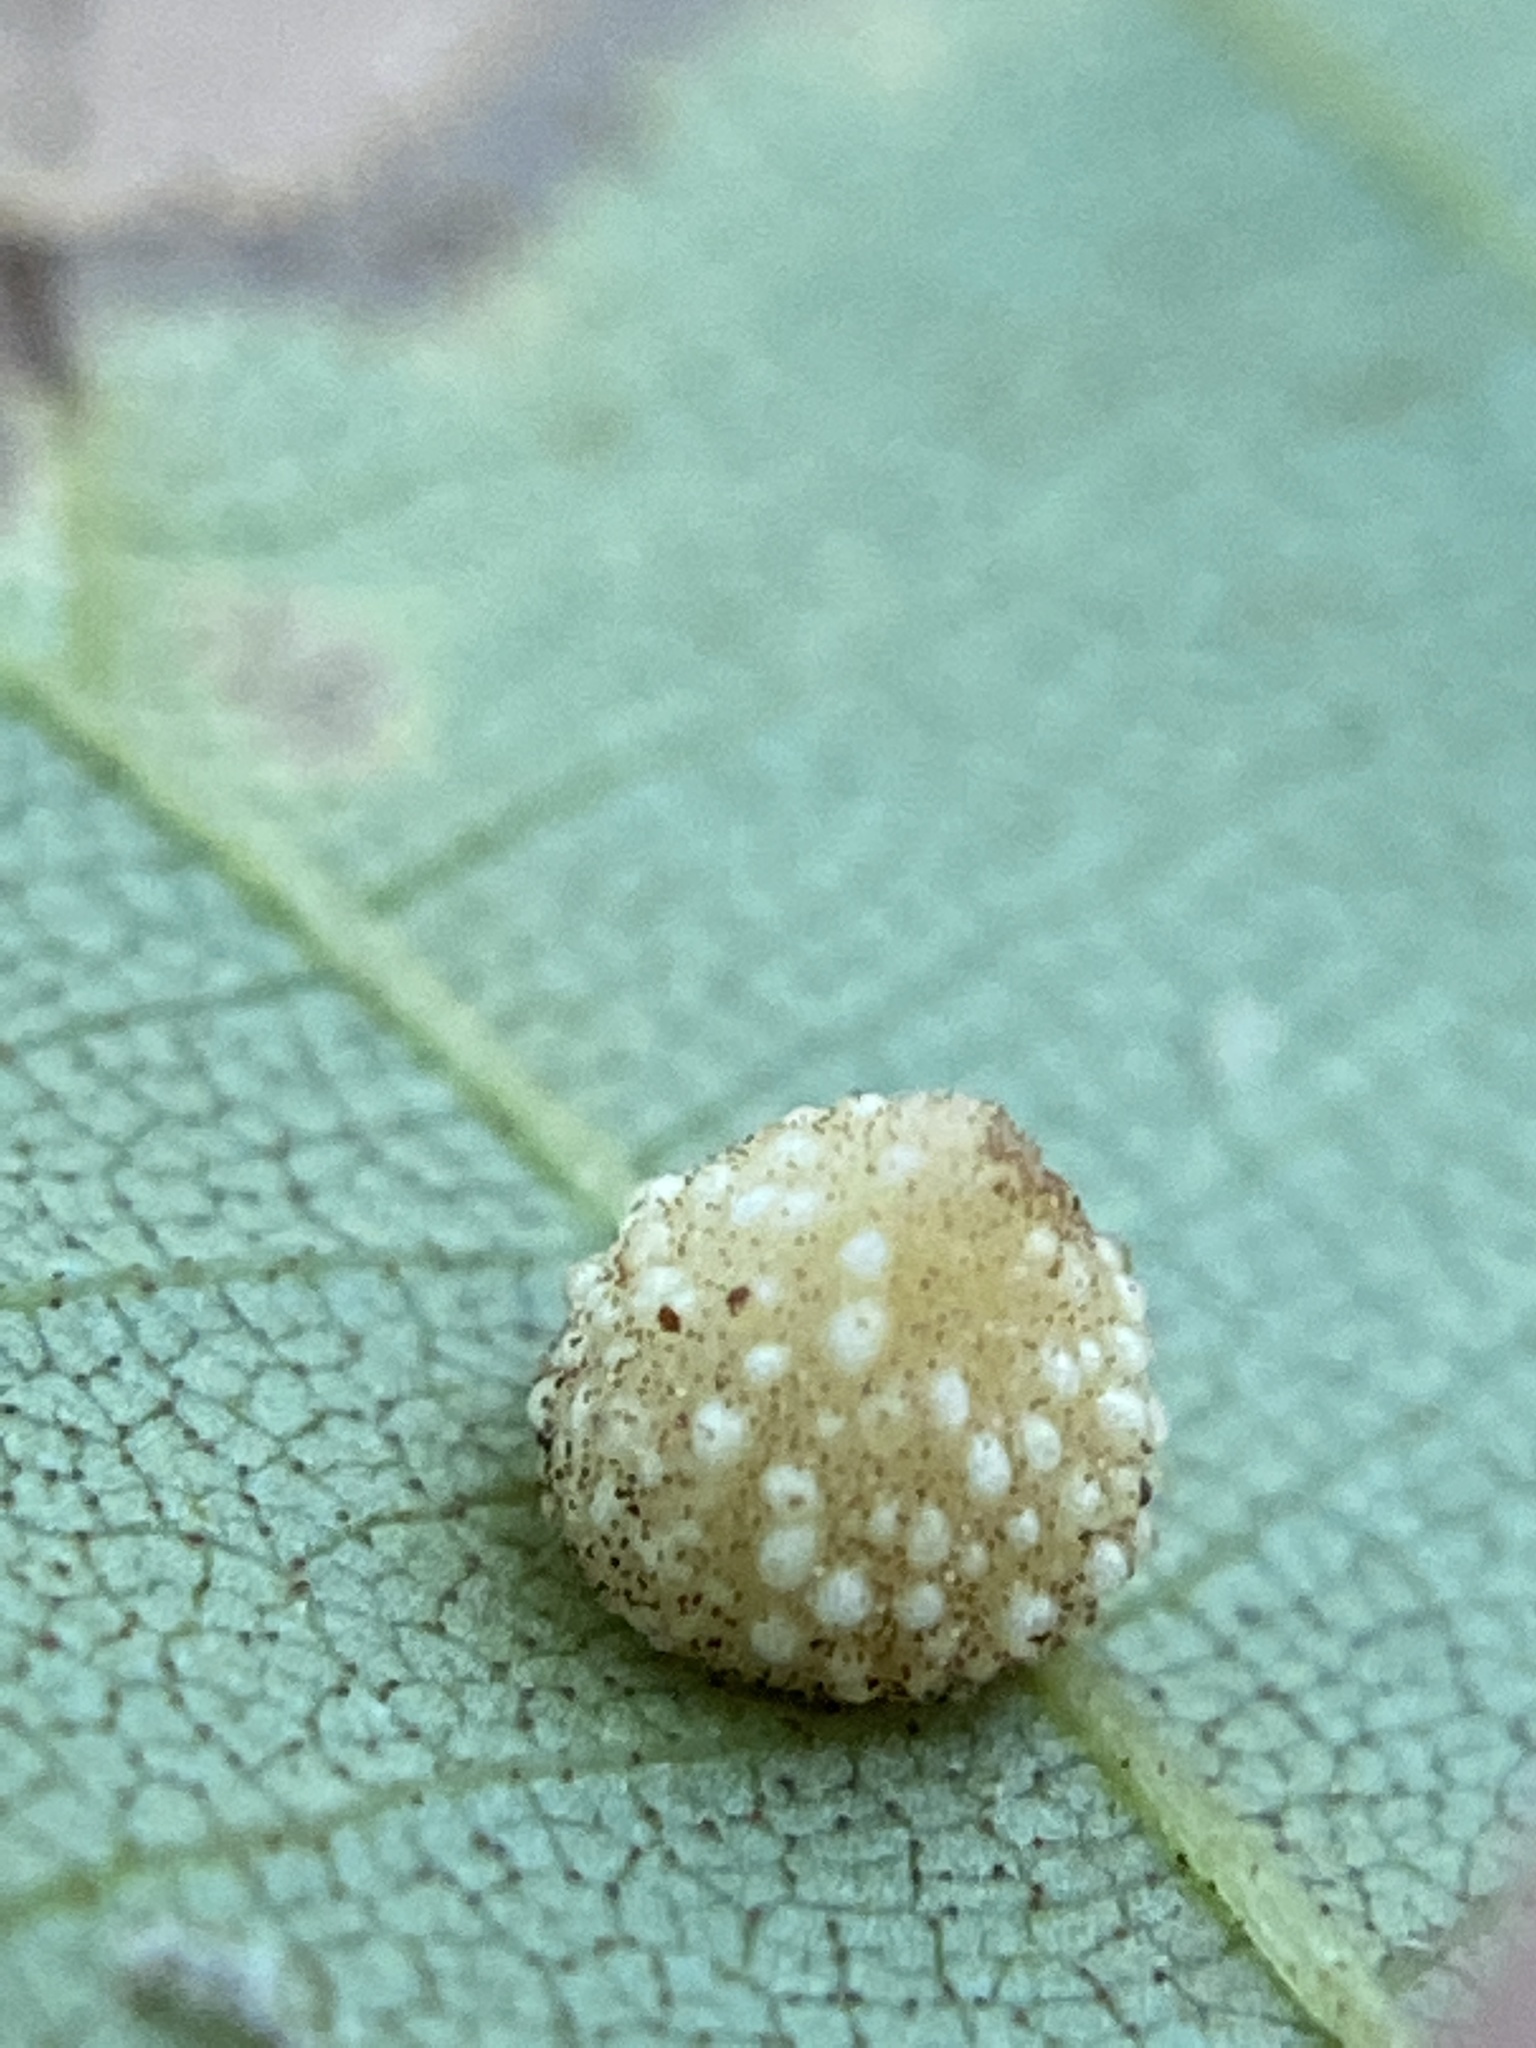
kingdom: Animalia
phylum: Arthropoda
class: Insecta
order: Diptera
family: Cecidomyiidae
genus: Caryomyia
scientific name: Caryomyia glebosa
